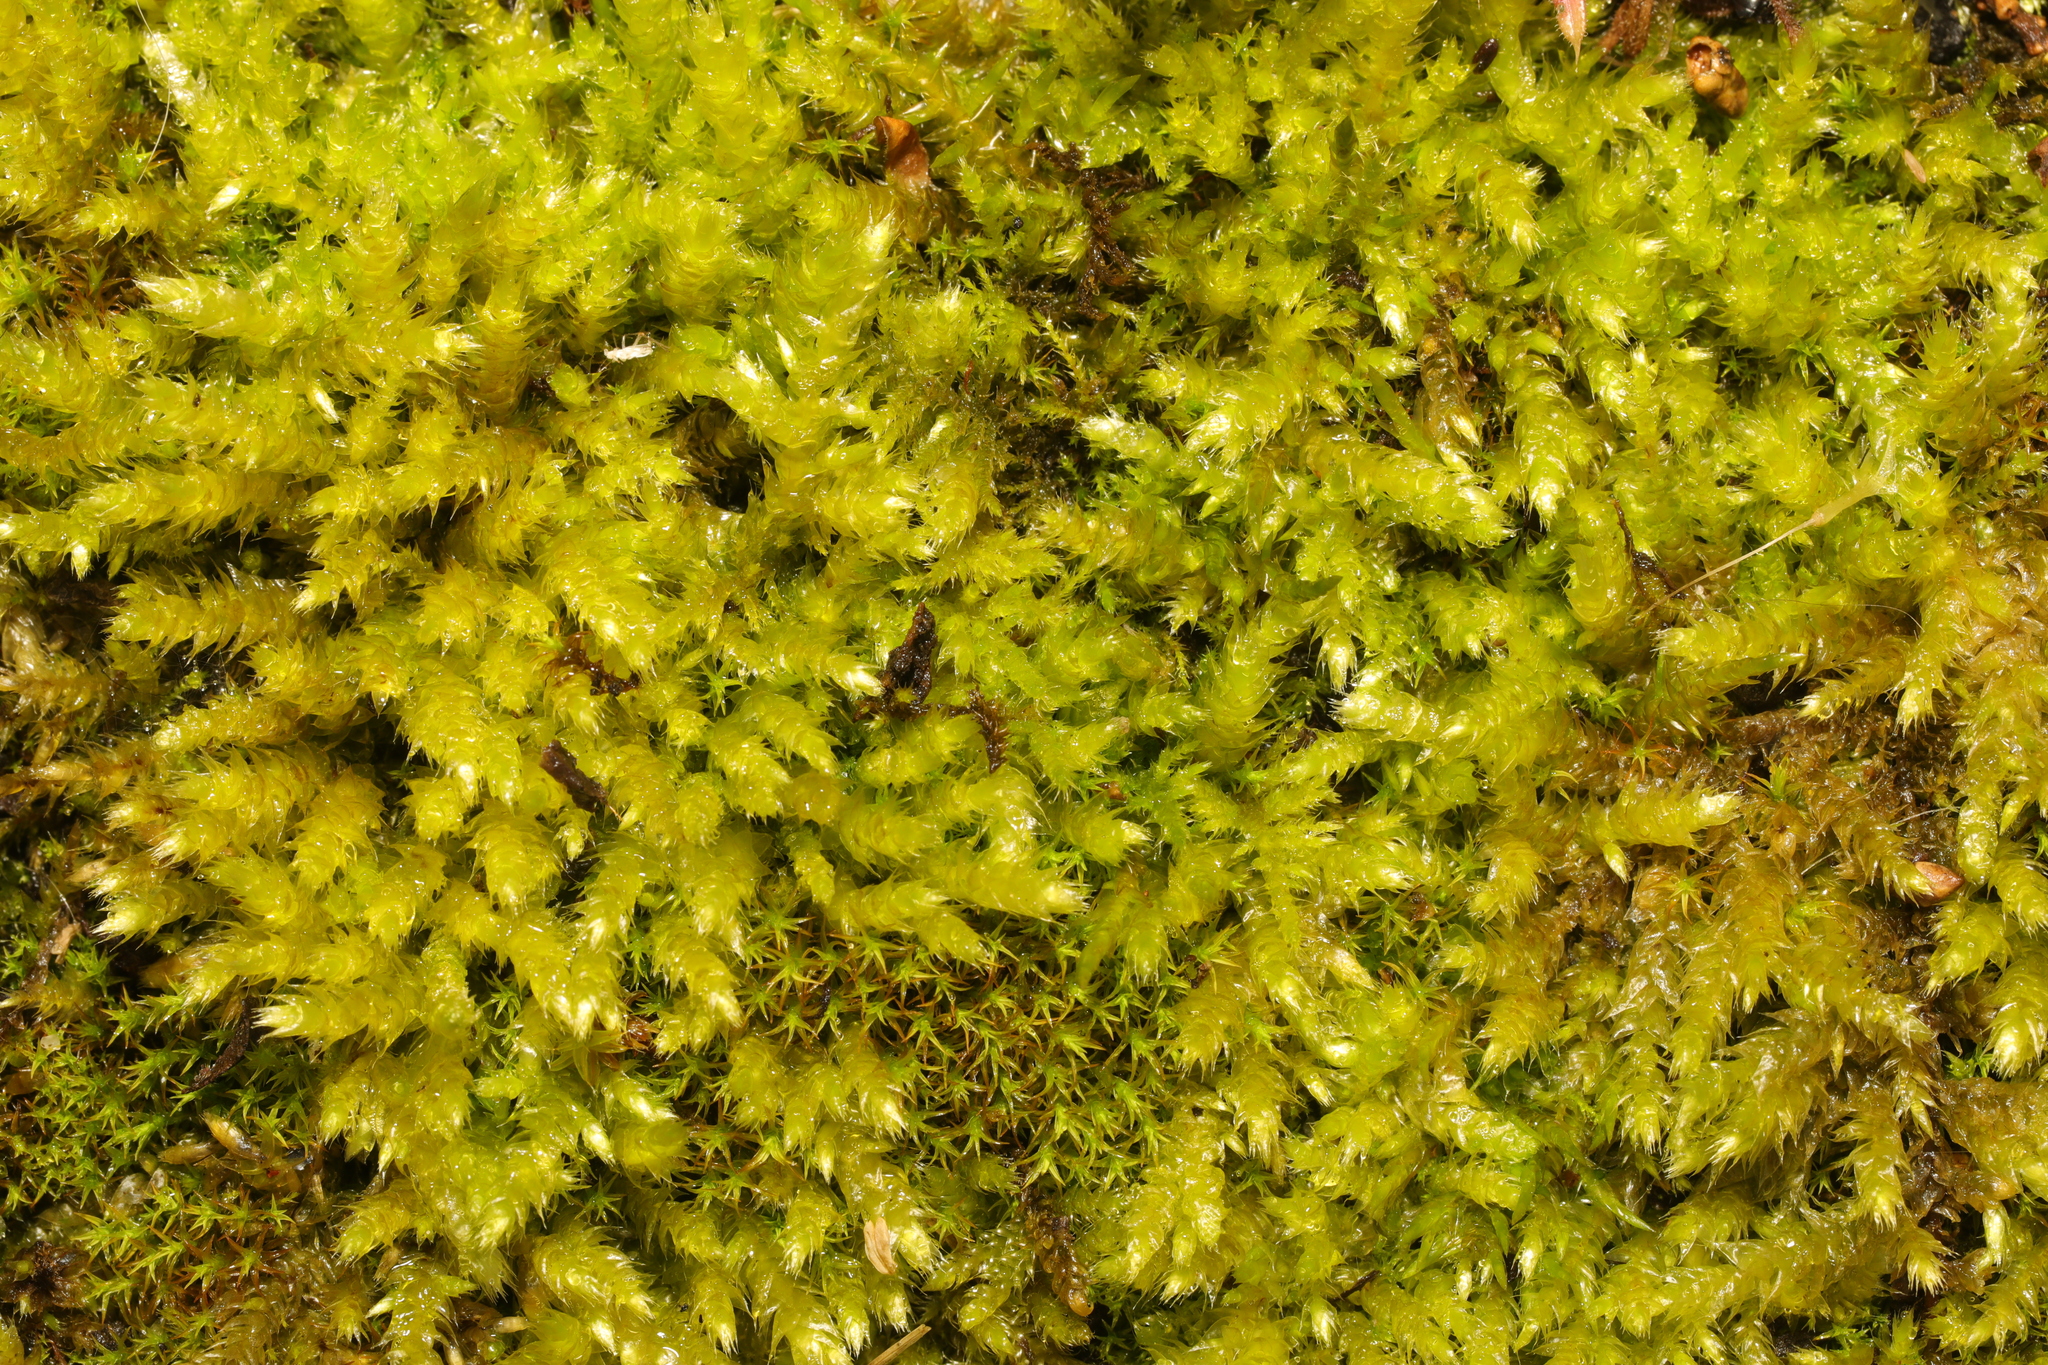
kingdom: Plantae
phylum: Bryophyta
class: Bryopsida
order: Hypnales
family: Brachytheciaceae
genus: Brachythecium
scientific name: Brachythecium rutabulum
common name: Rough-stalked feather-moss
